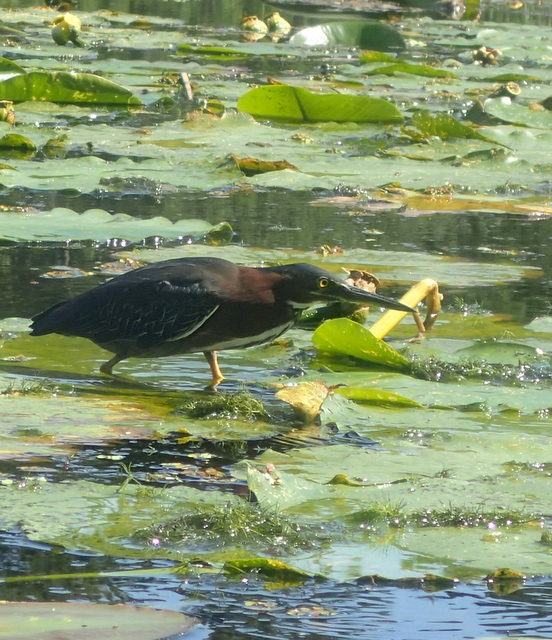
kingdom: Animalia
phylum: Chordata
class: Aves
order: Pelecaniformes
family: Ardeidae
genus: Butorides
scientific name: Butorides virescens
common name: Green heron
